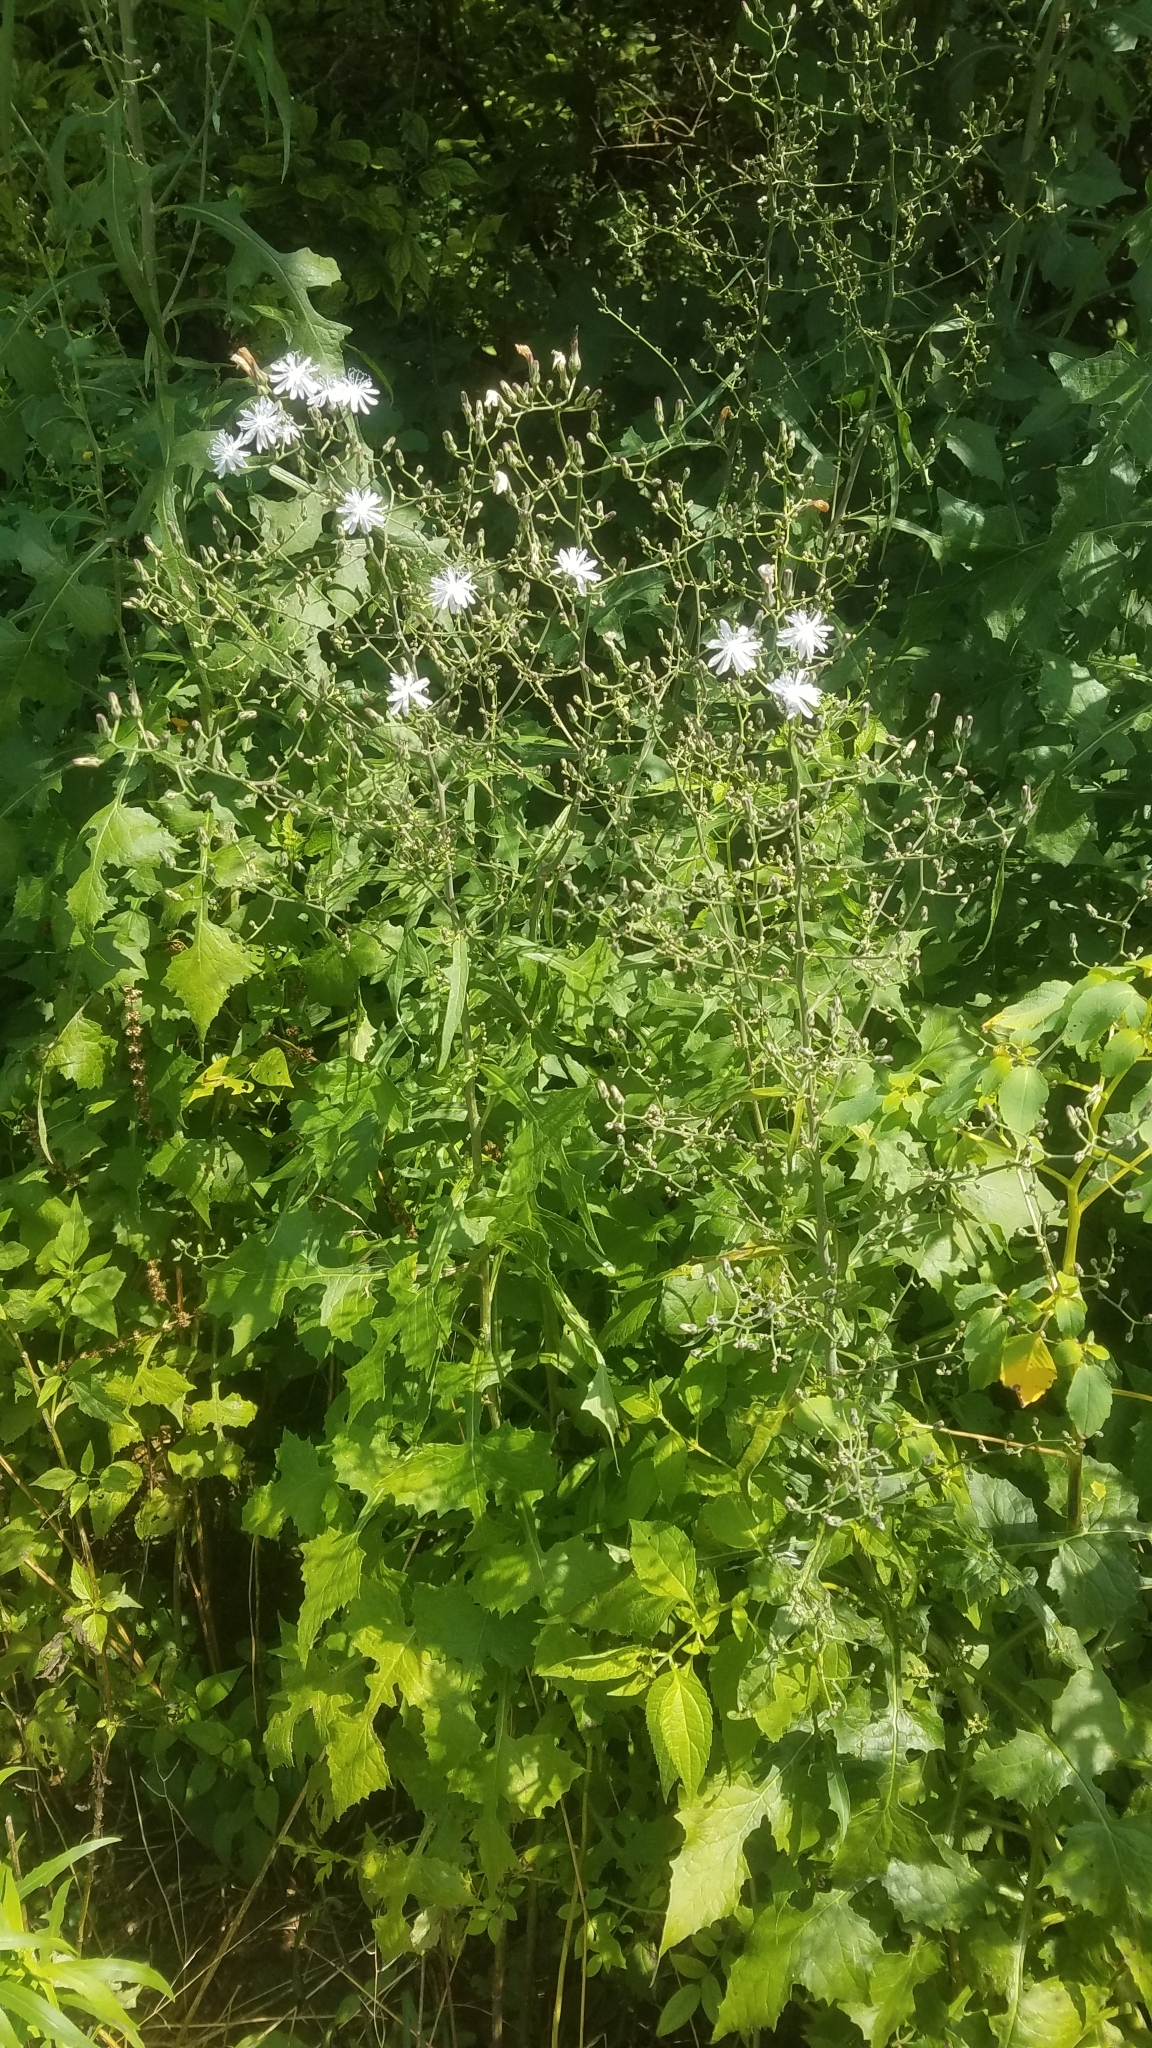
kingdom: Plantae
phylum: Tracheophyta
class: Magnoliopsida
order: Asterales
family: Asteraceae
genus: Lactuca
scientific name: Lactuca floridana
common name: Woodland lettuce
